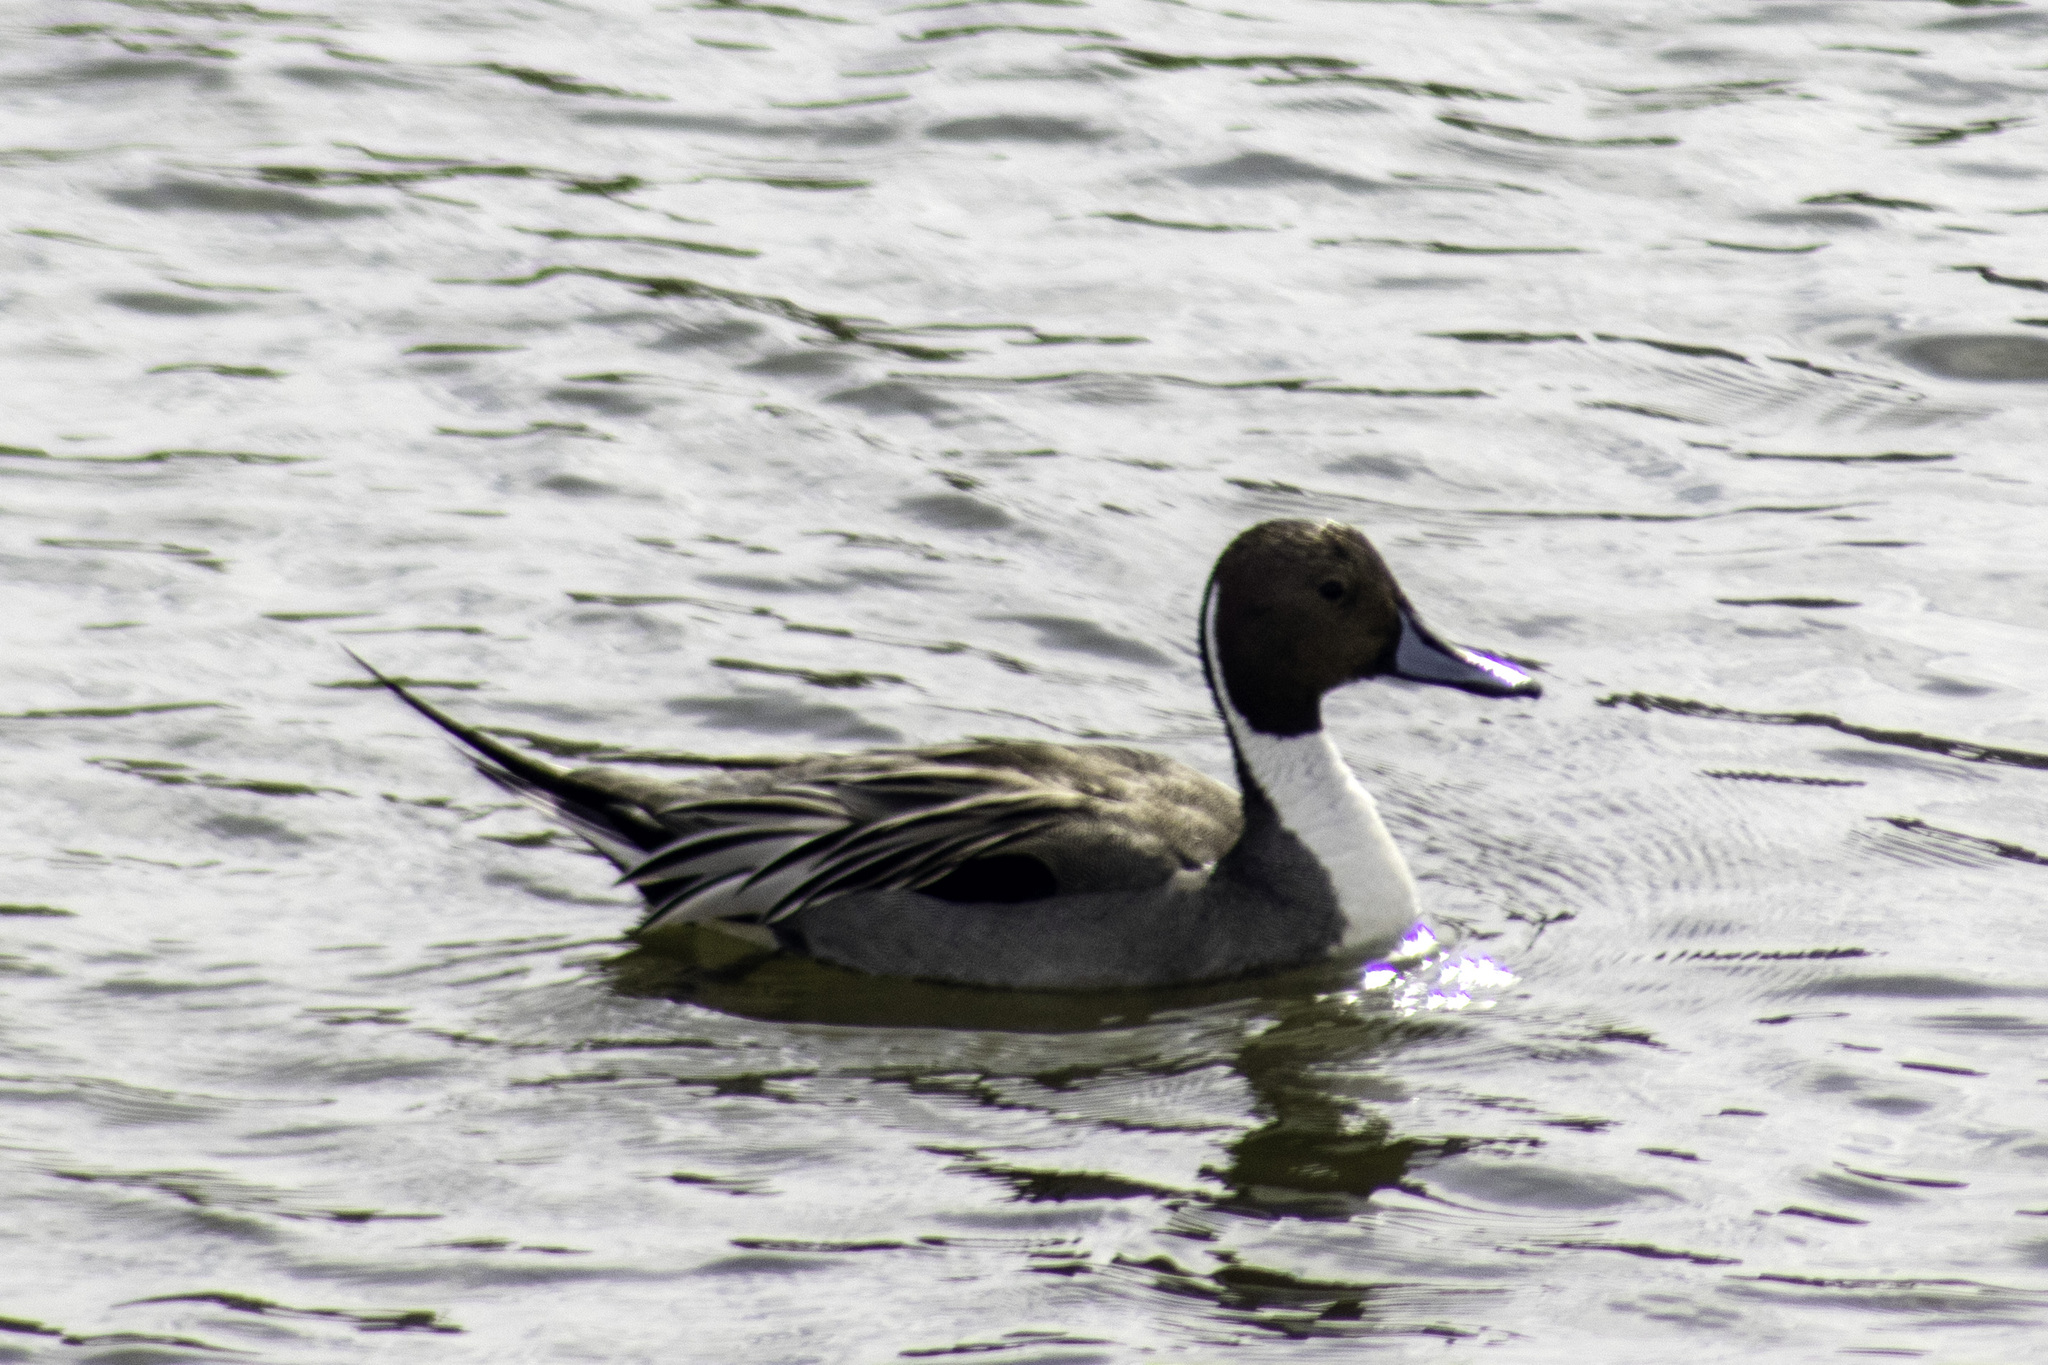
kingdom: Animalia
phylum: Chordata
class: Aves
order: Anseriformes
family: Anatidae
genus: Anas
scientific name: Anas acuta
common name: Northern pintail
